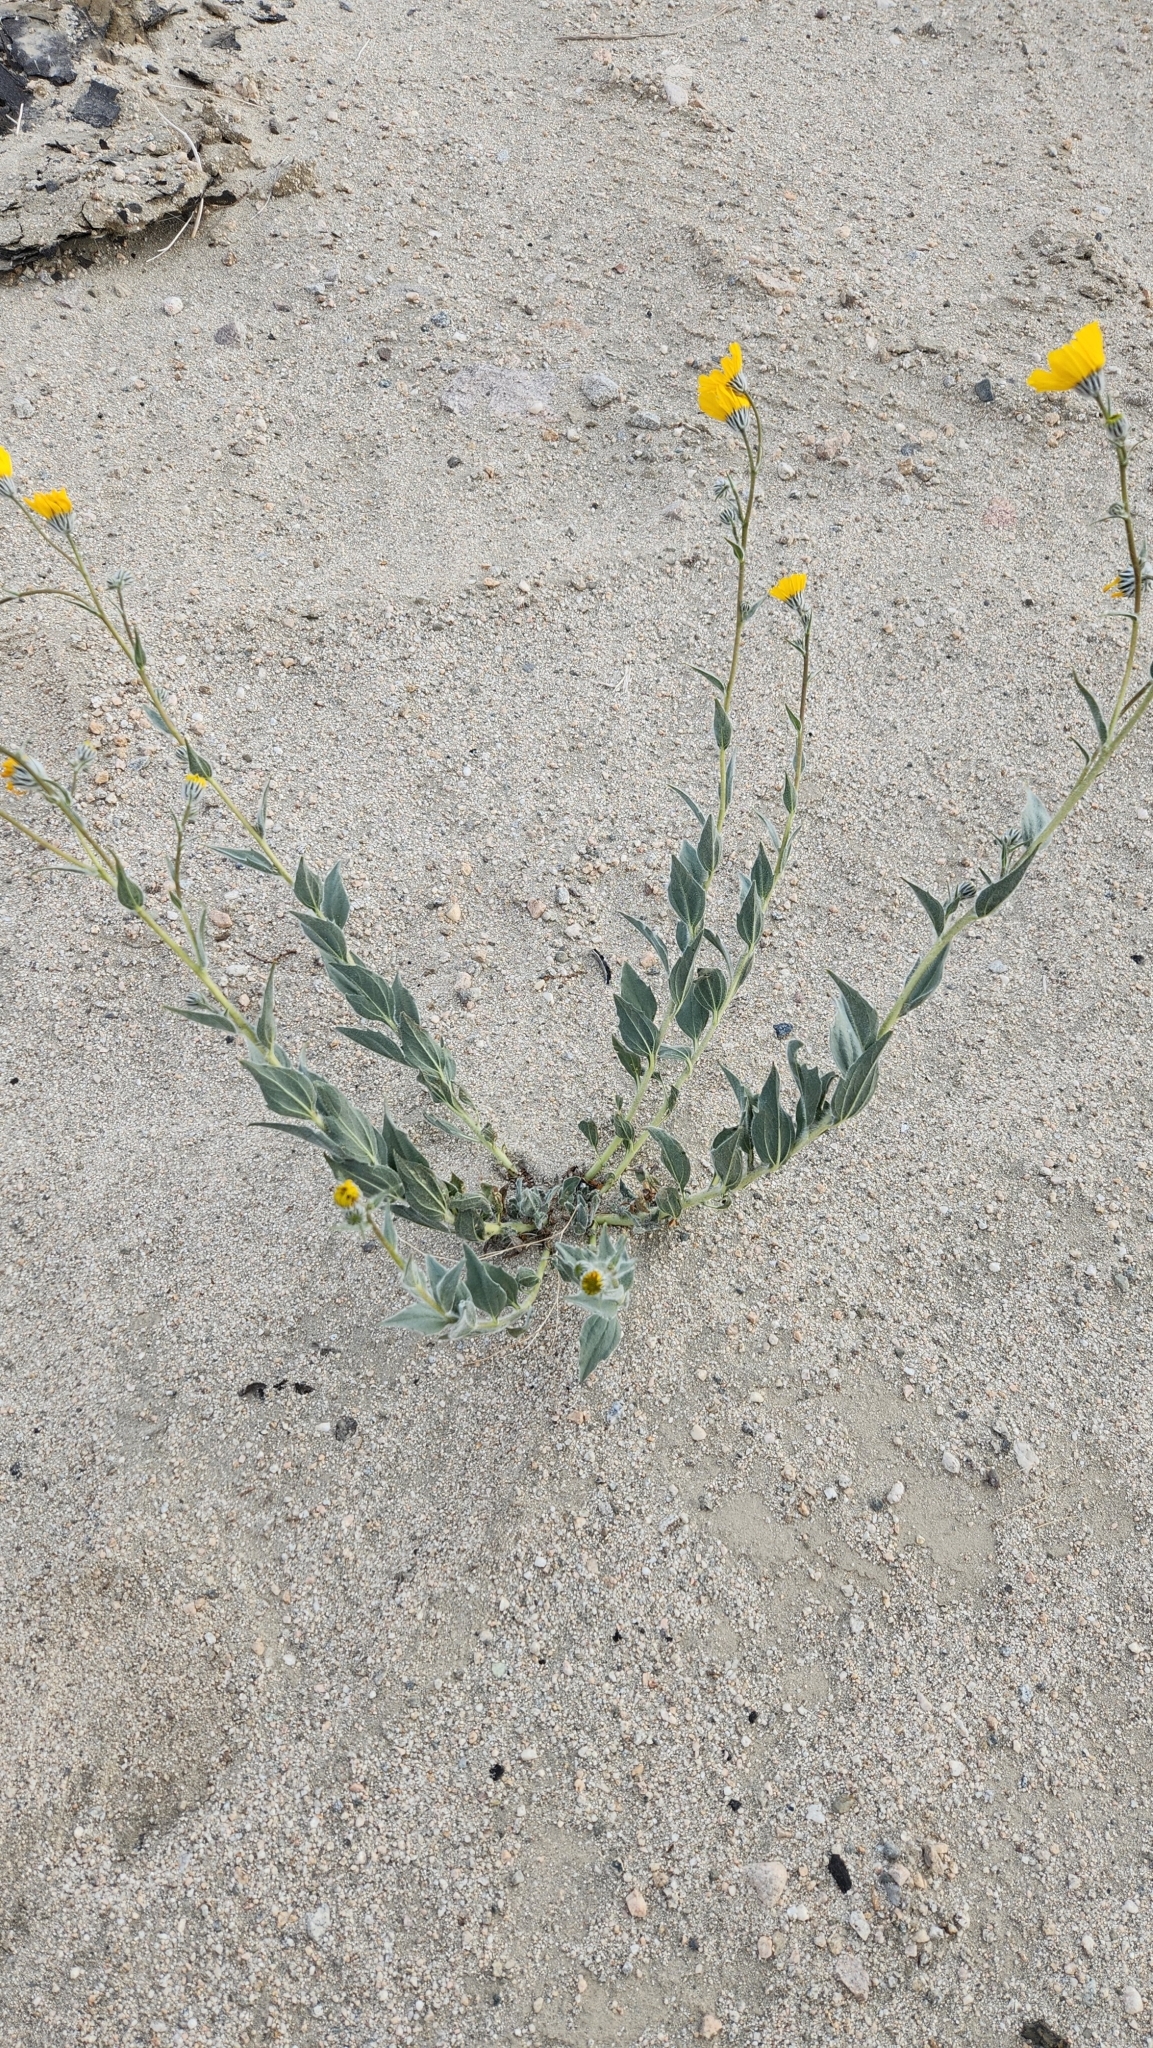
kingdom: Plantae
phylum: Tracheophyta
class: Magnoliopsida
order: Asterales
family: Asteraceae
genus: Geraea
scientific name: Geraea canescens
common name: Desert-gold
